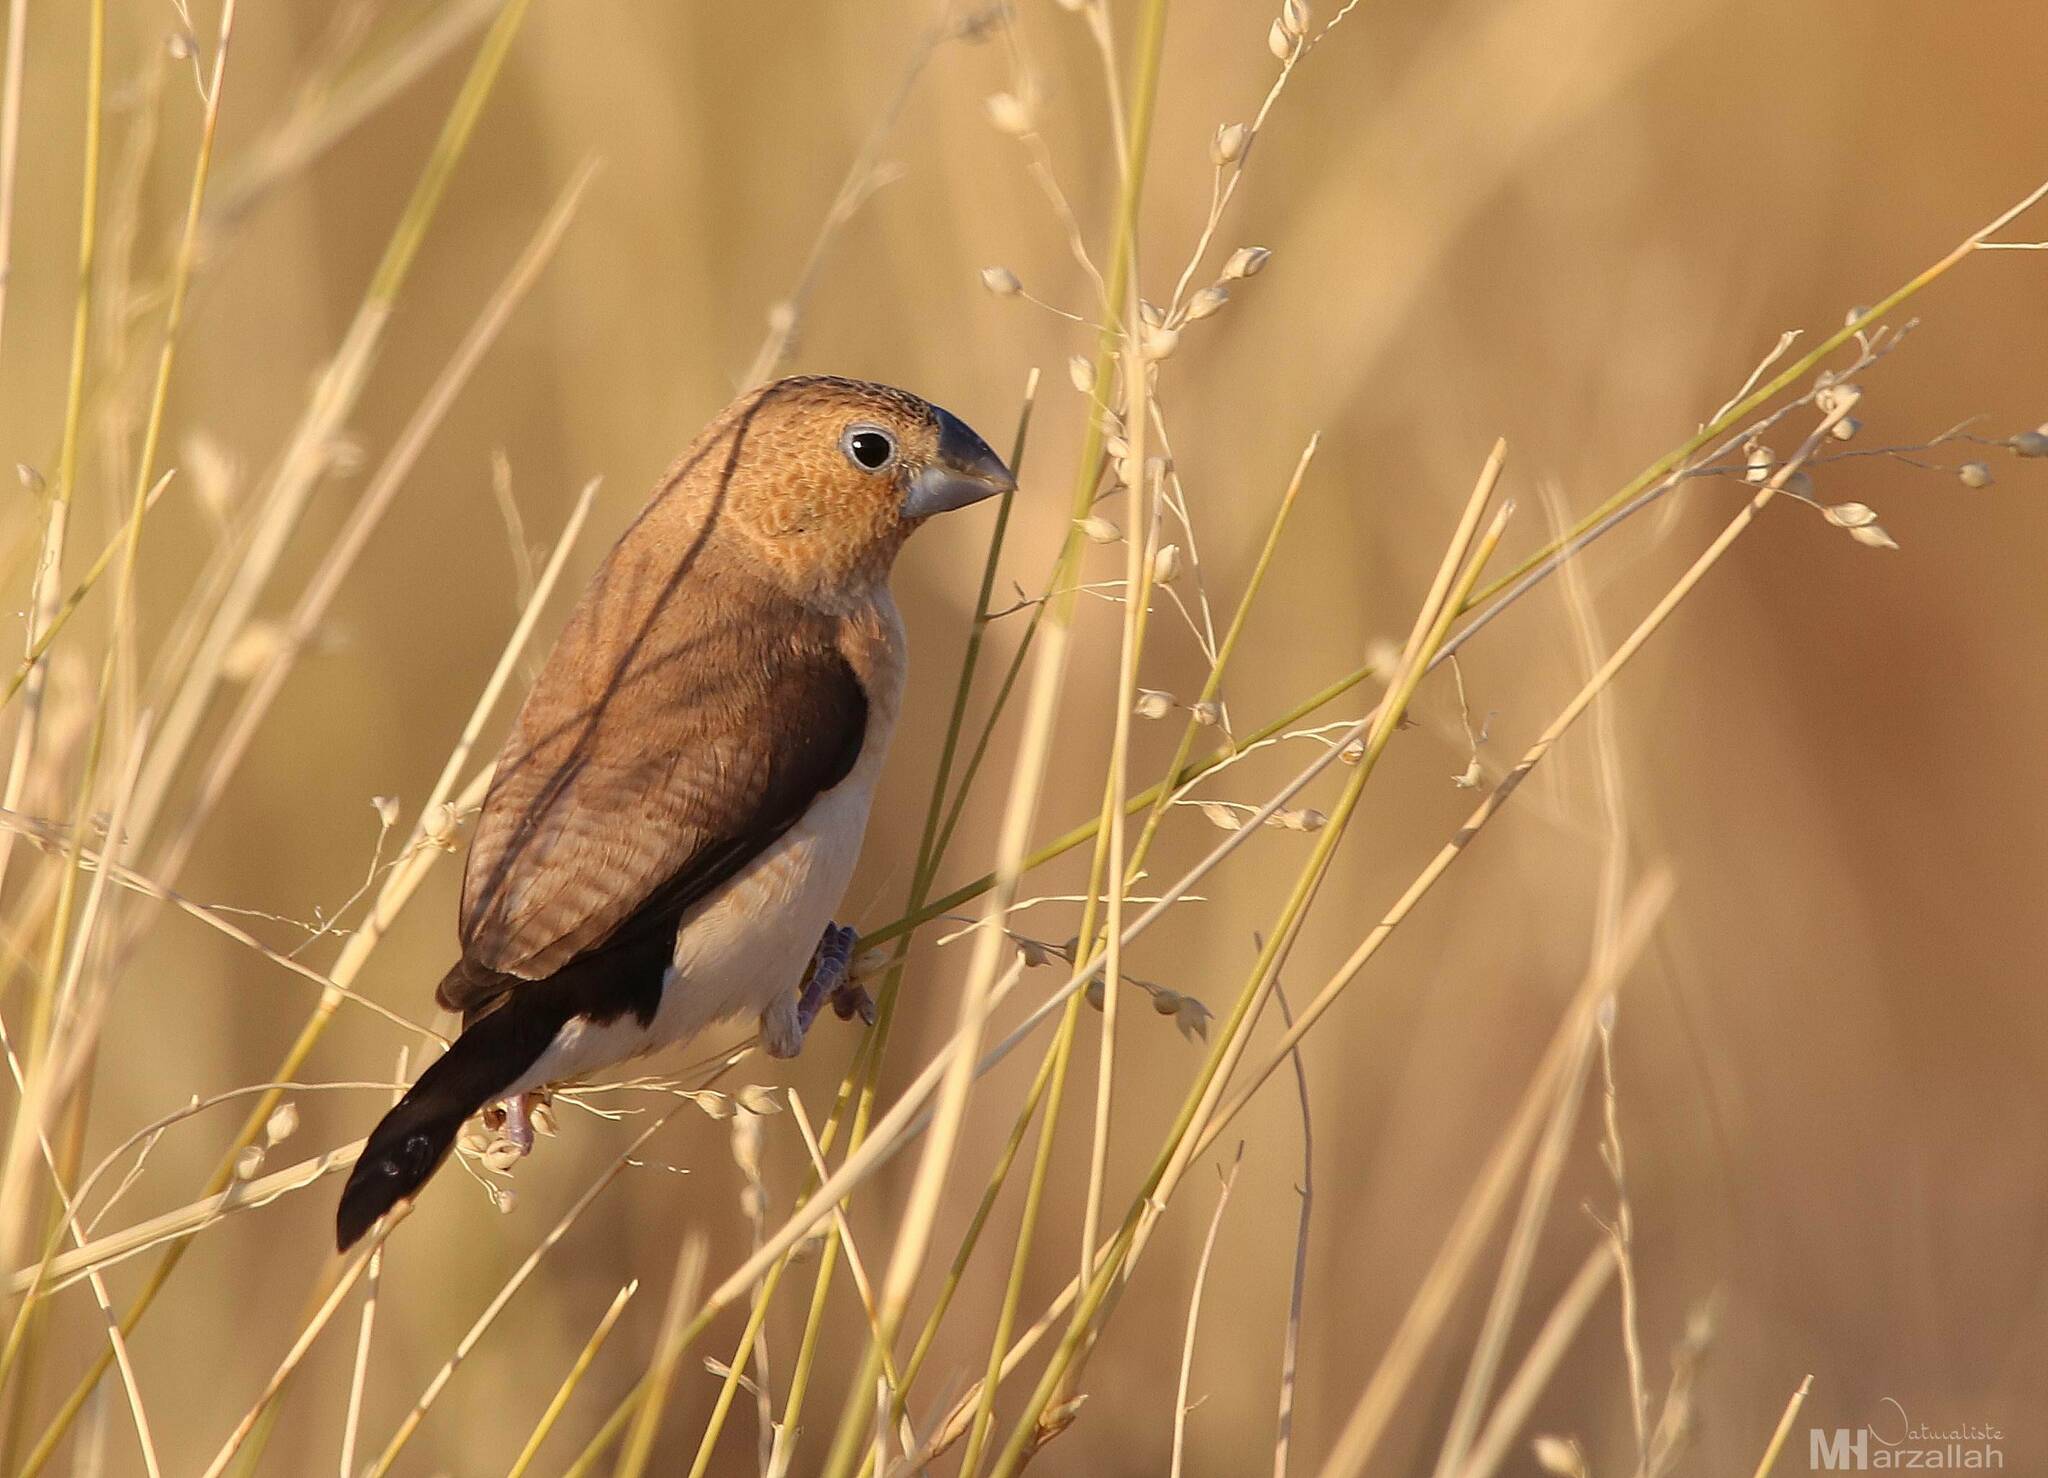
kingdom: Animalia
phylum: Chordata
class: Aves
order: Passeriformes
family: Estrildidae
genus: Euodice
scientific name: Euodice cantans
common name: African silverbill
